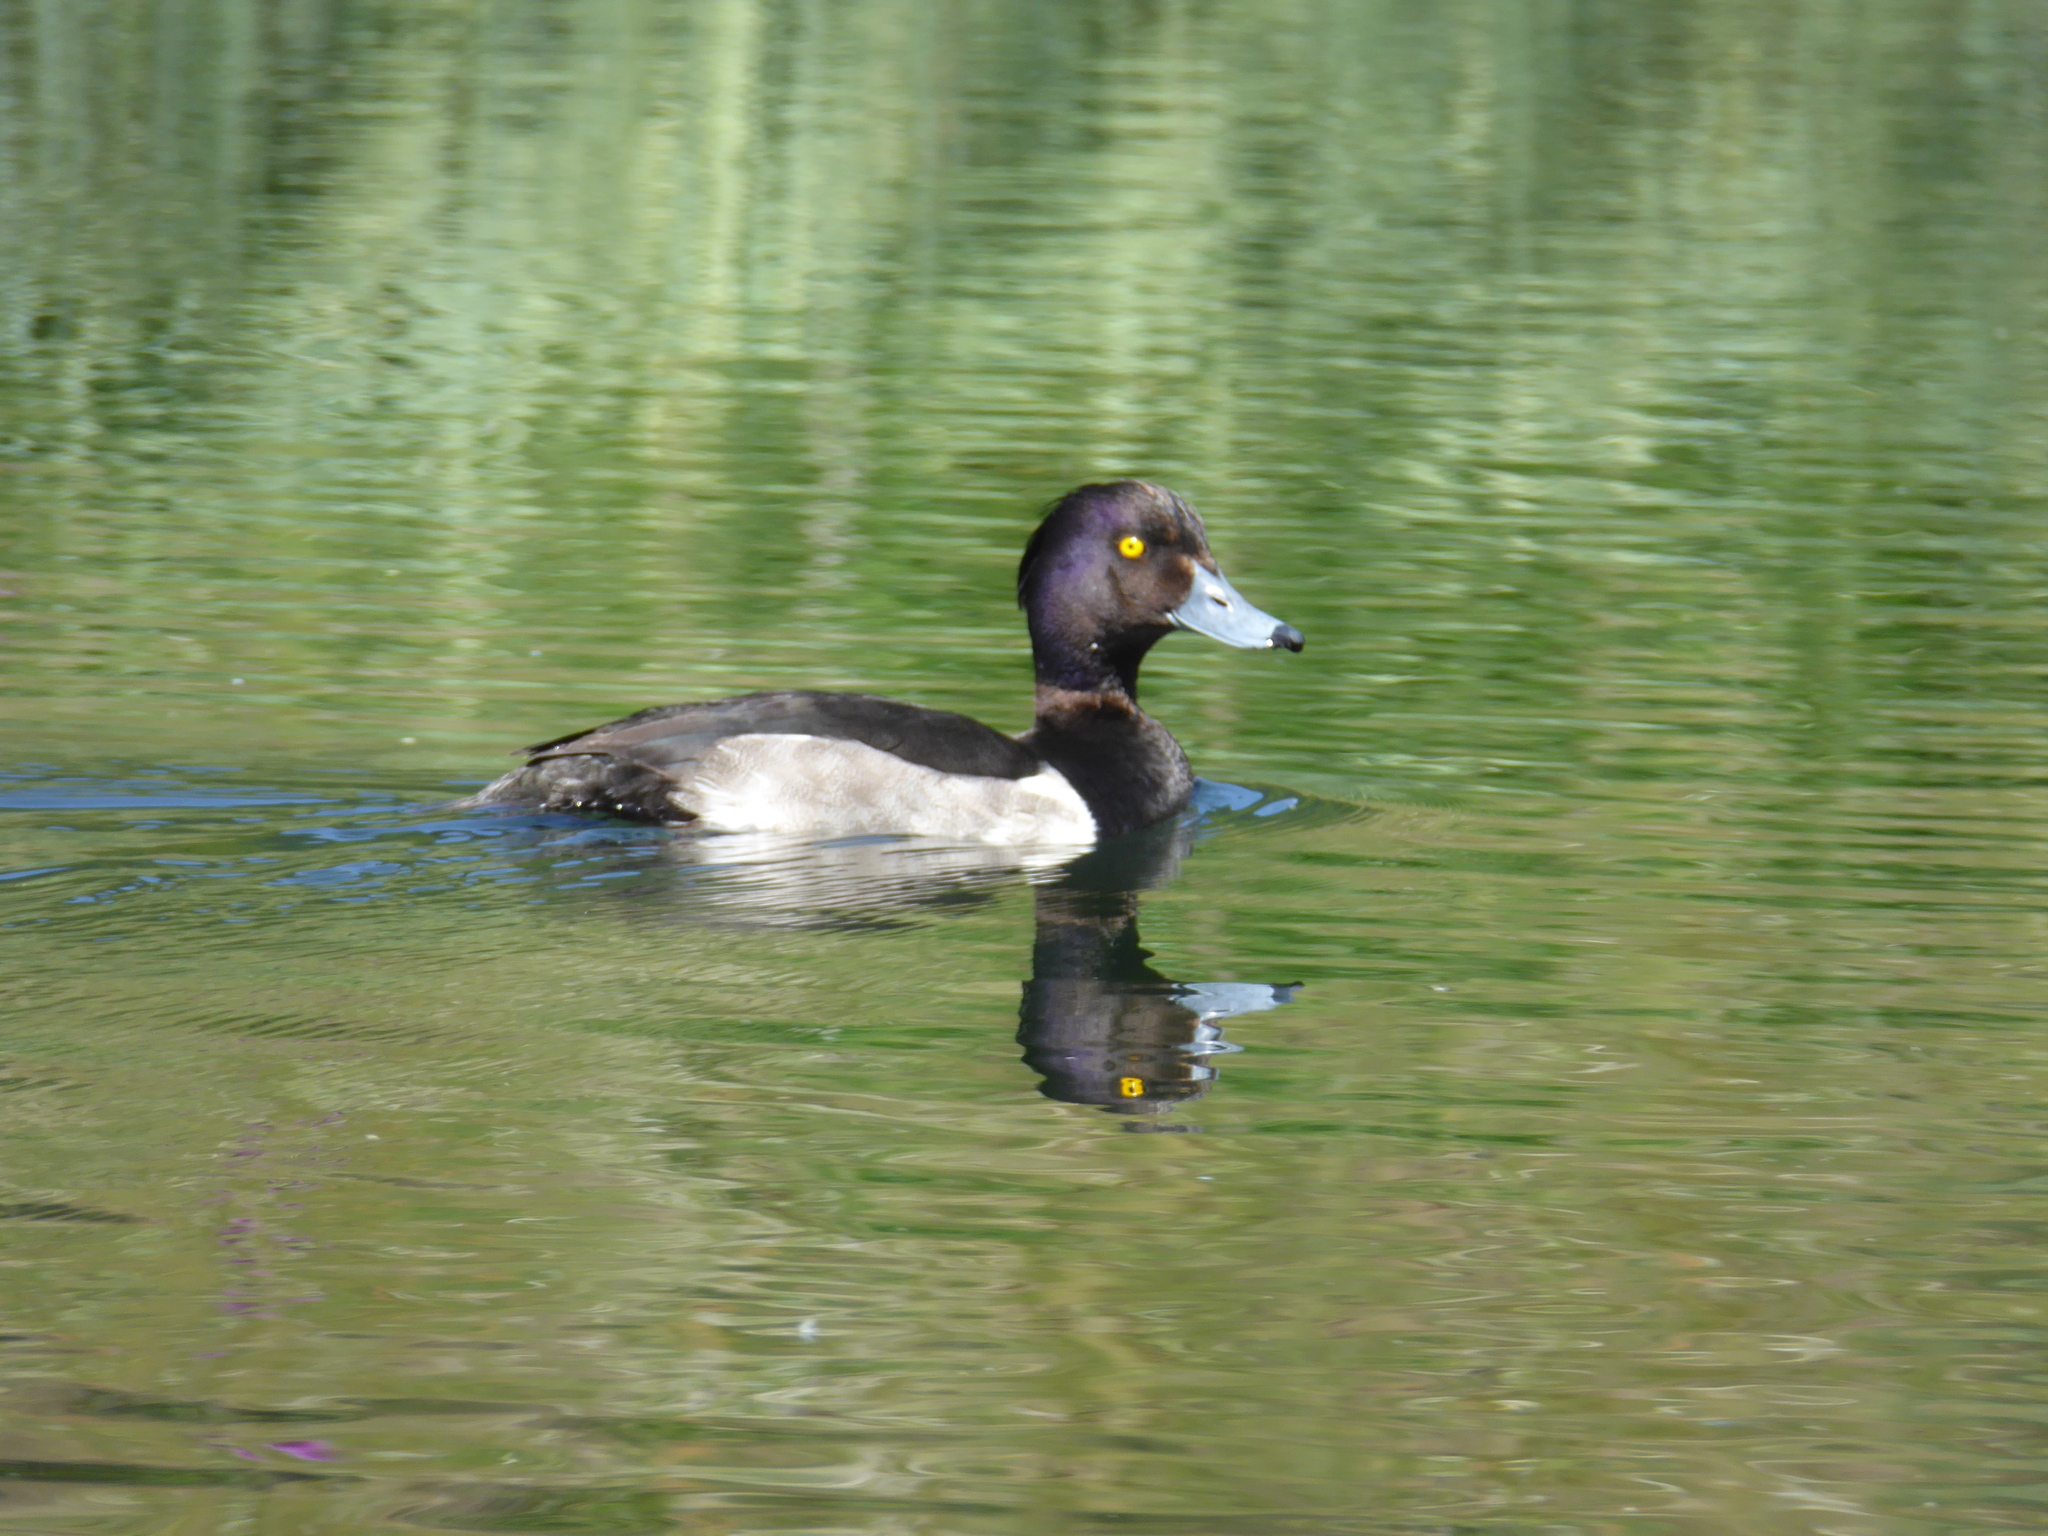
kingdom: Animalia
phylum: Chordata
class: Aves
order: Anseriformes
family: Anatidae
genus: Aythya
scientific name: Aythya fuligula
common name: Tufted duck
